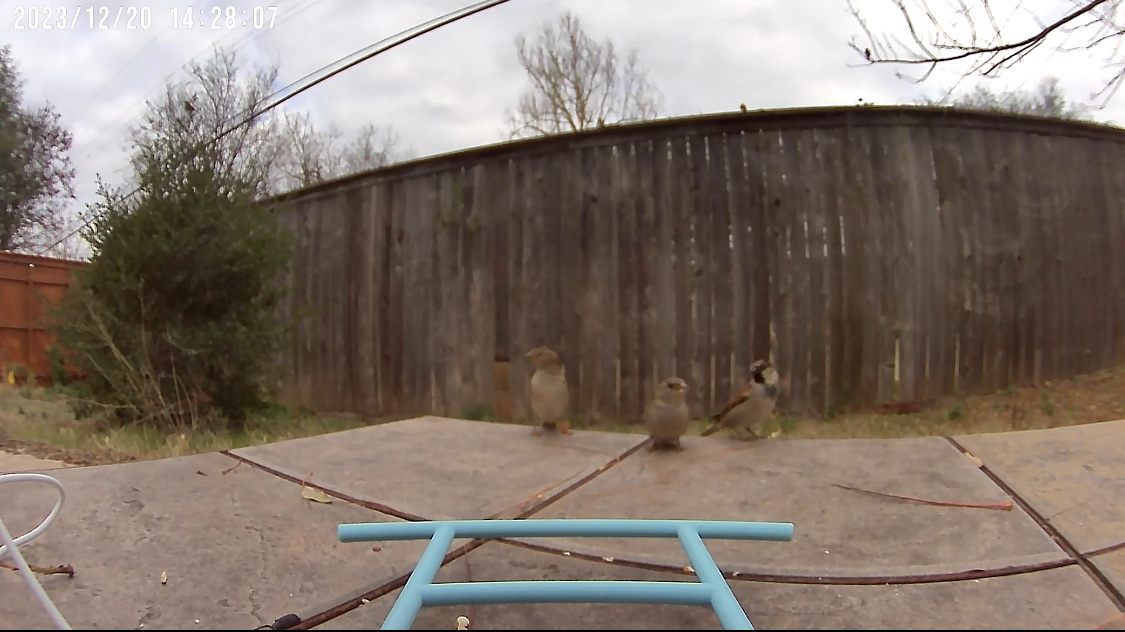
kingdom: Animalia
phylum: Chordata
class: Aves
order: Passeriformes
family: Passeridae
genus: Passer
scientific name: Passer domesticus
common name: House sparrow
